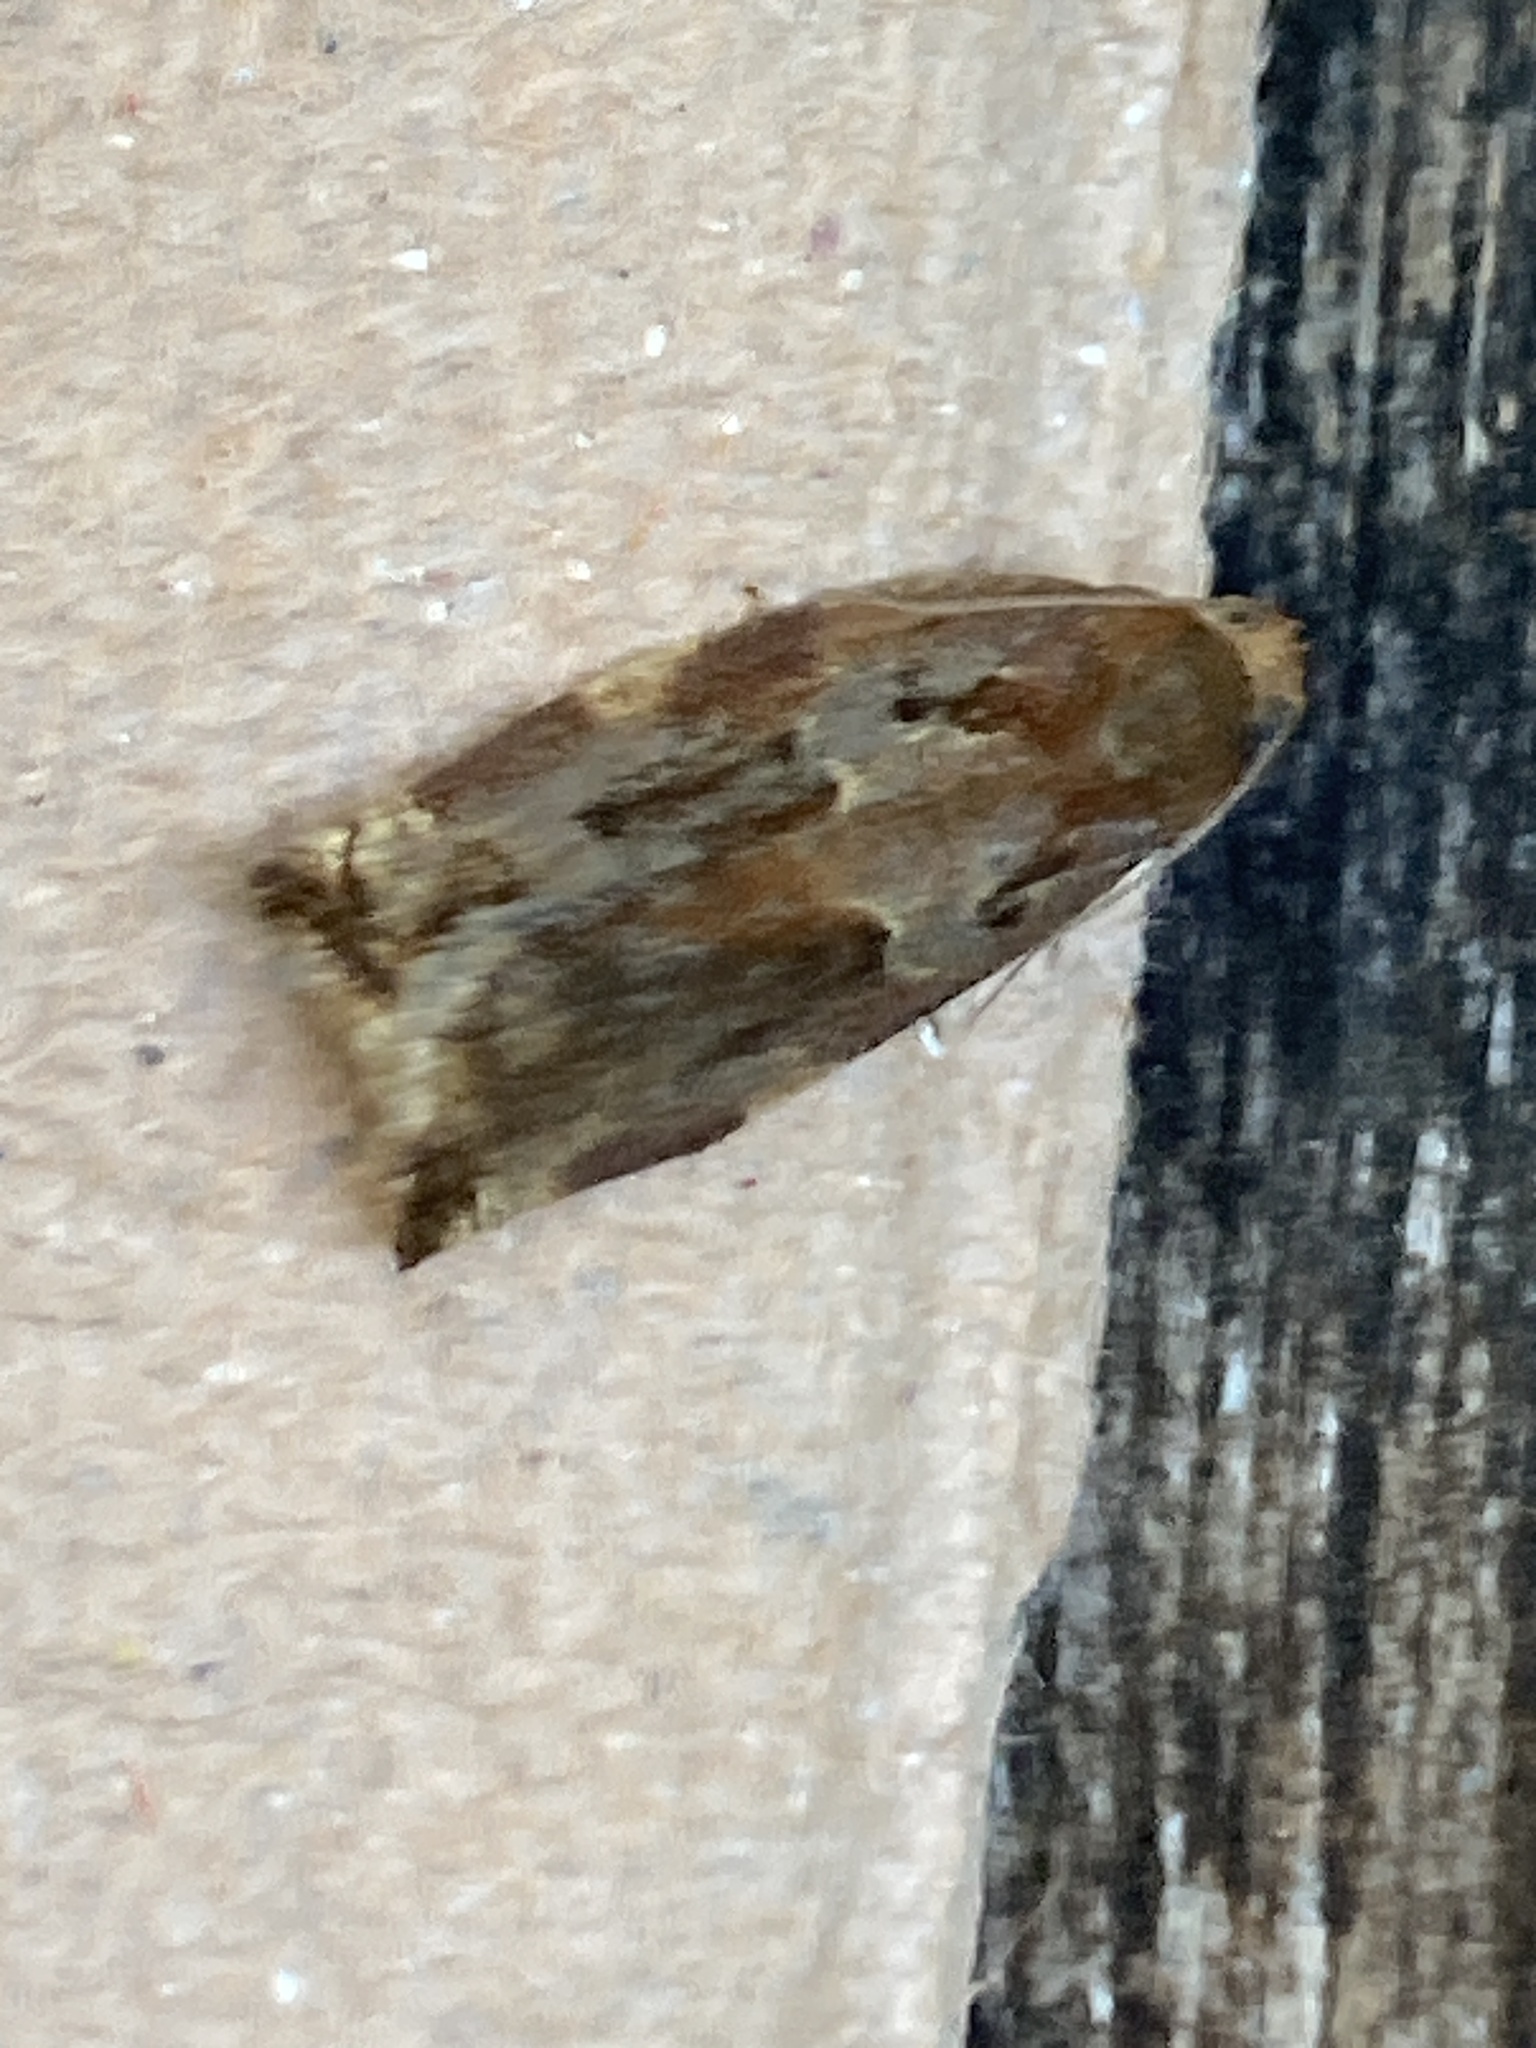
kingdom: Animalia
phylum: Arthropoda
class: Insecta
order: Lepidoptera
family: Tortricidae
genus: Archips
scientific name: Archips xylosteana
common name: Variegated golden tortrix
